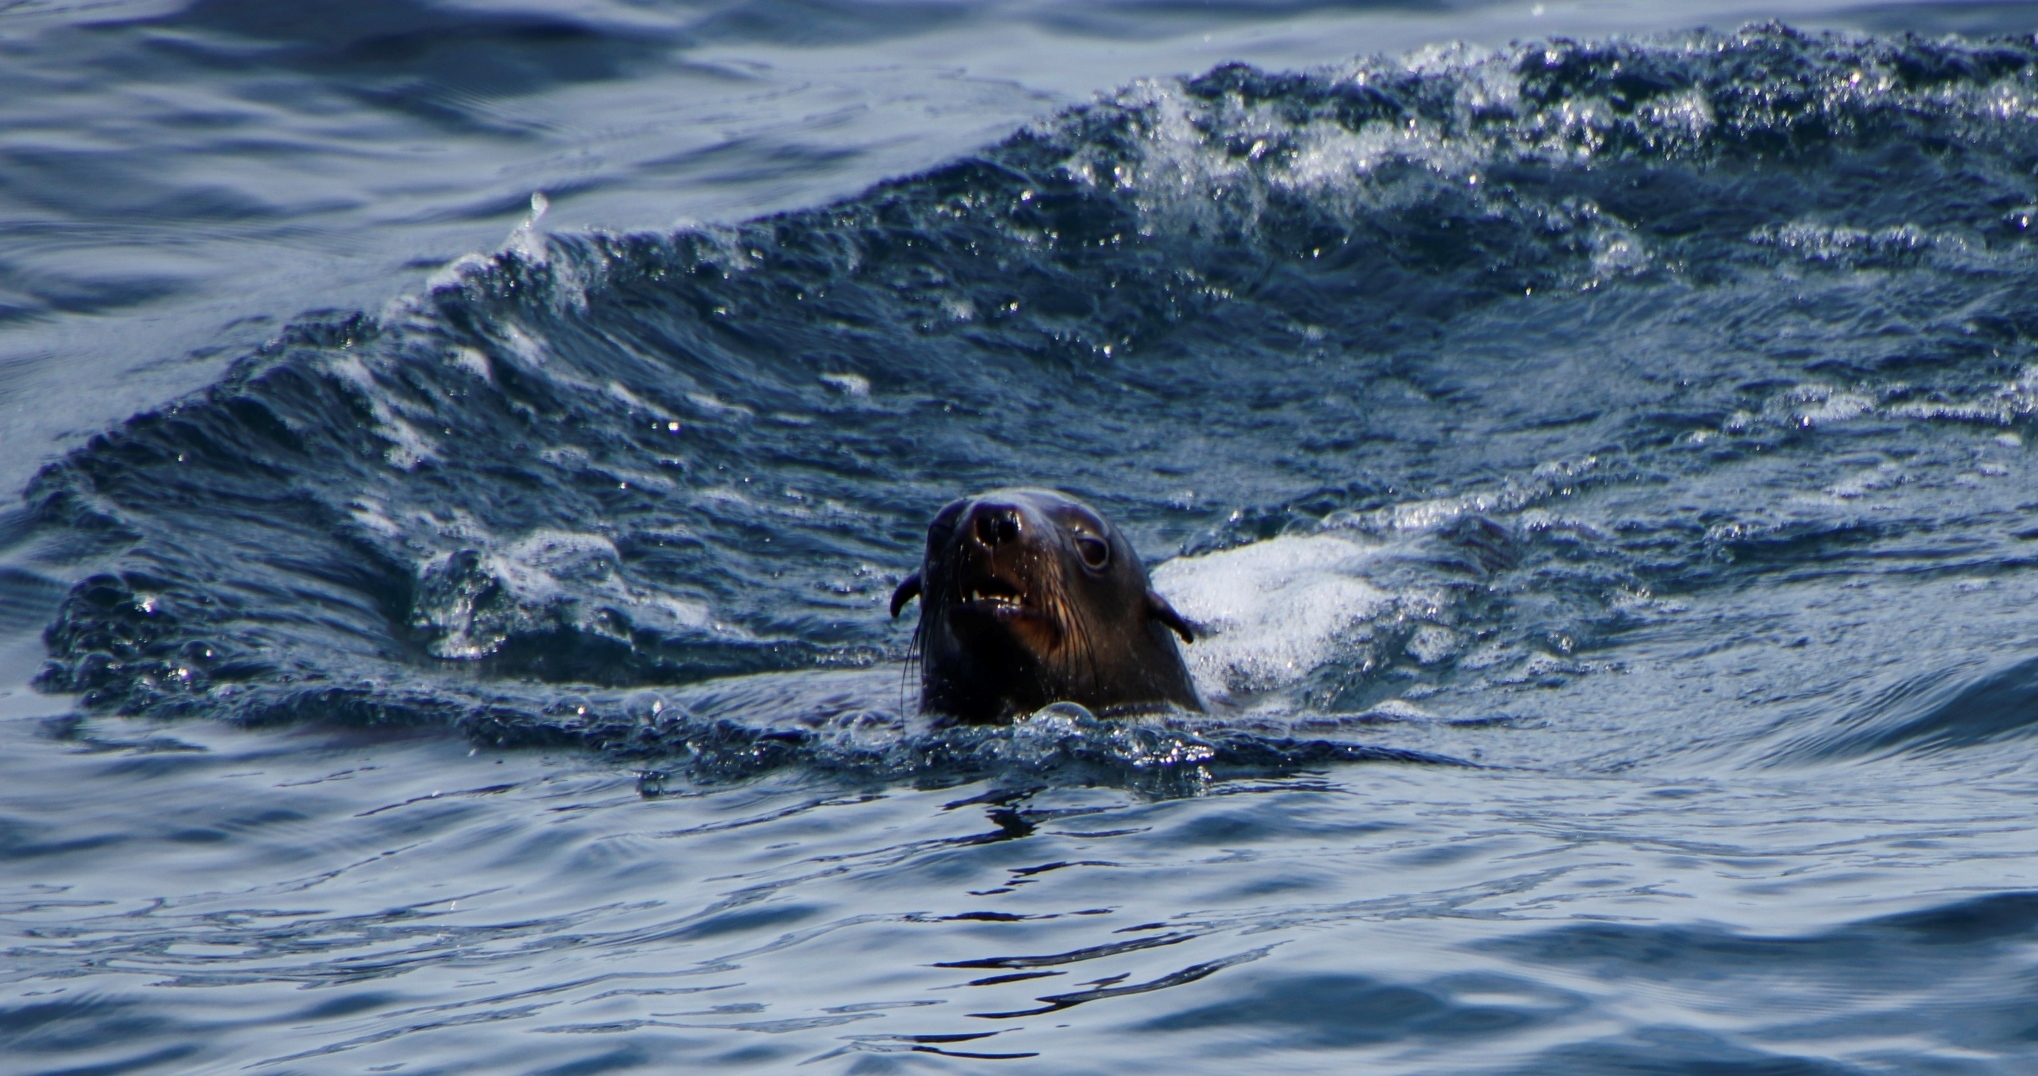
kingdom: Animalia
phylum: Chordata
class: Mammalia
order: Carnivora
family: Otariidae
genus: Arctocephalus
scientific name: Arctocephalus pusillus
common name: Brown fur seal
